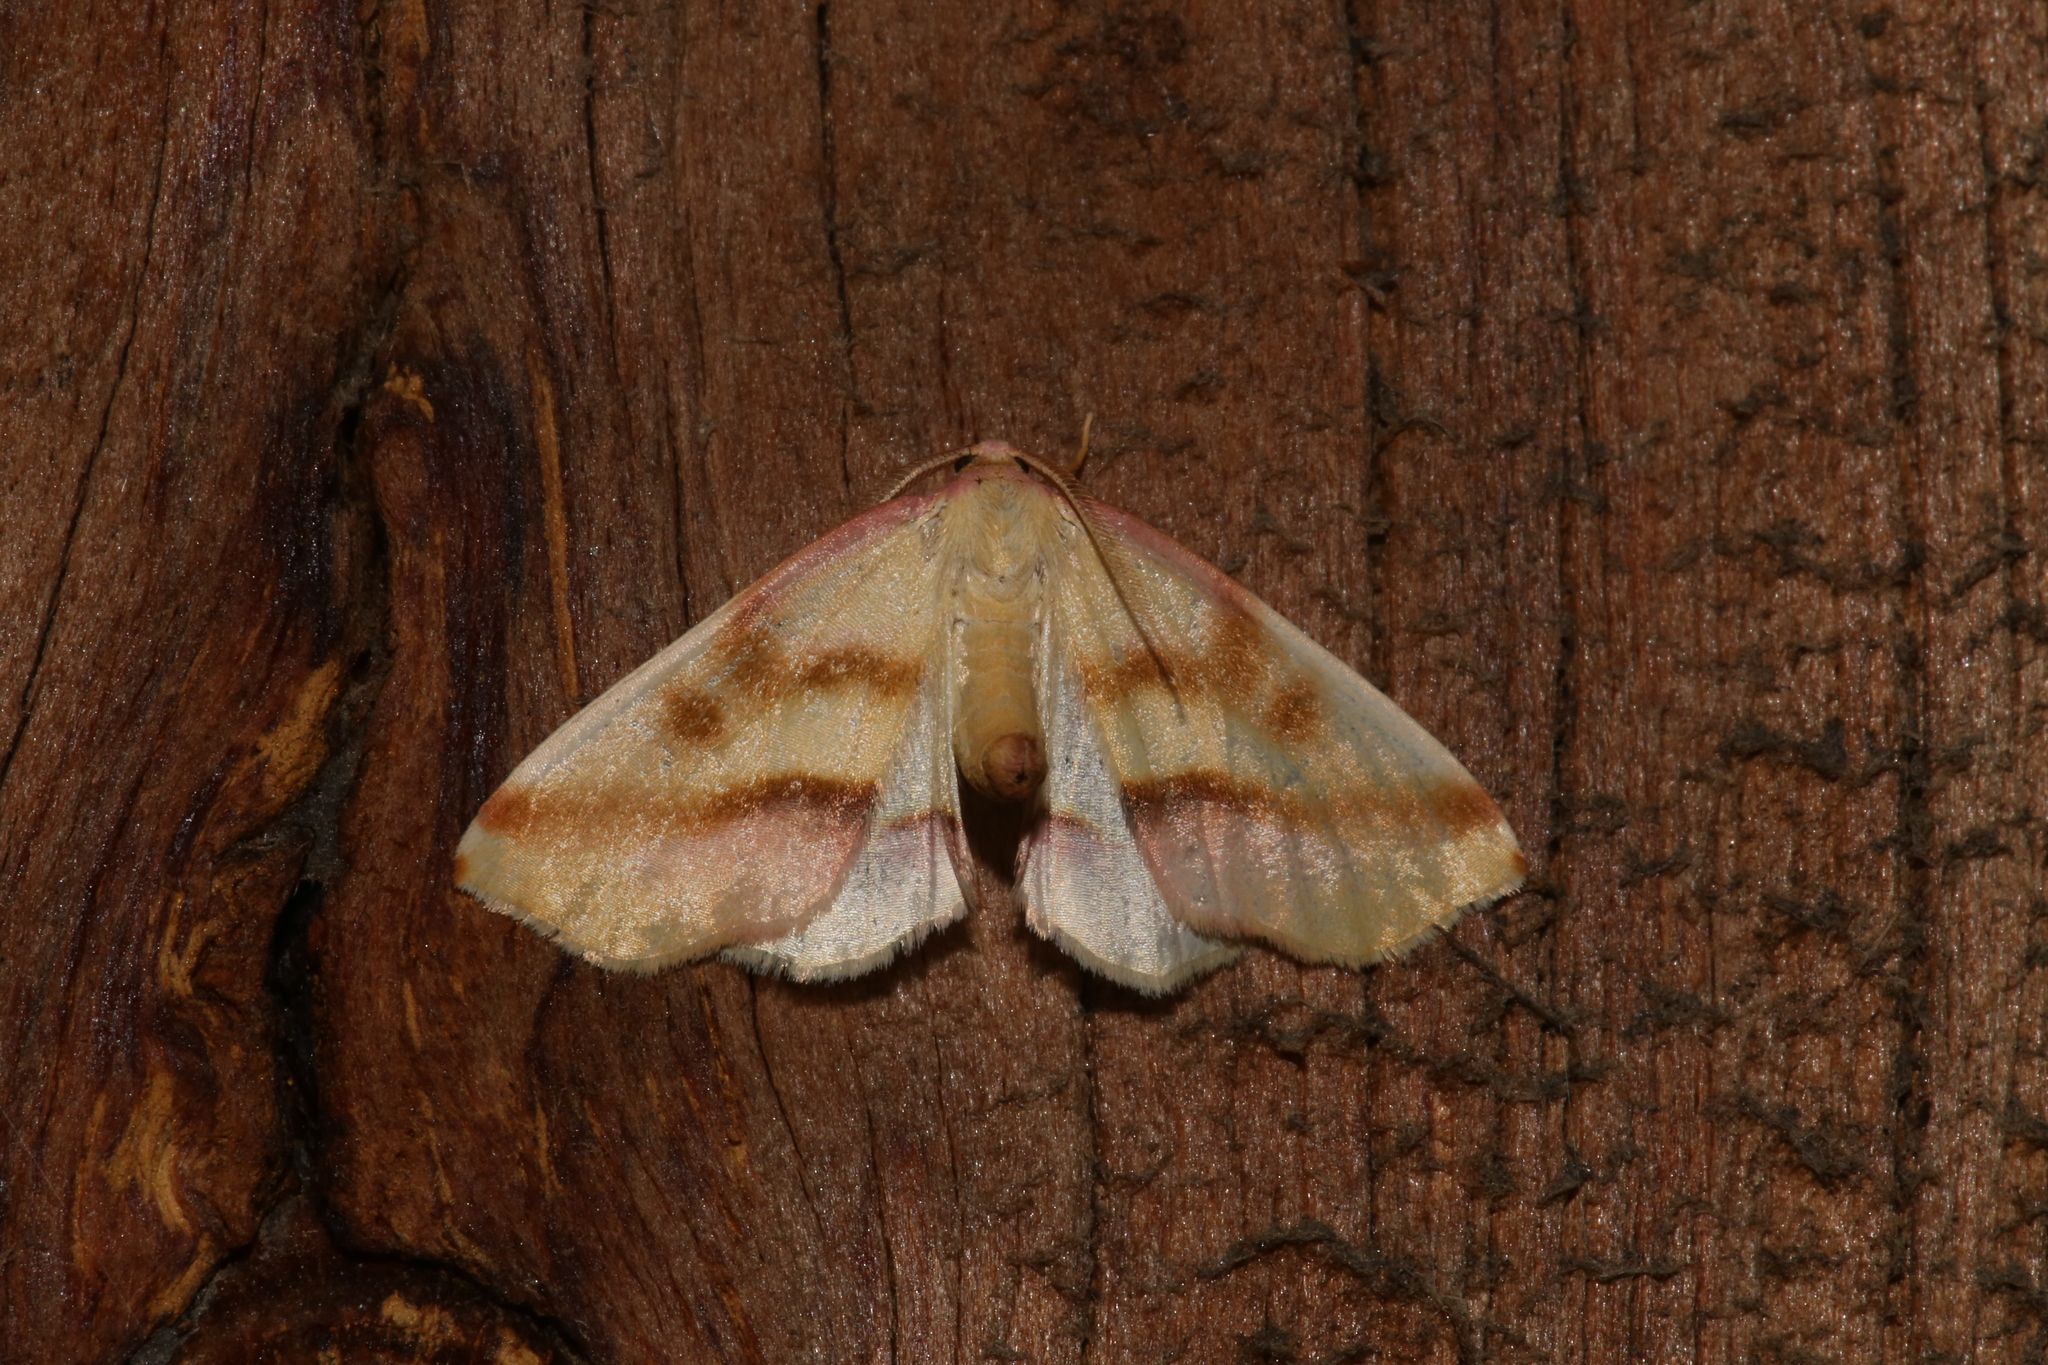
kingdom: Animalia
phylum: Arthropoda
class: Insecta
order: Lepidoptera
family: Geometridae
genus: Plagodis
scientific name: Plagodis serinaria
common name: Lemon plagodis
